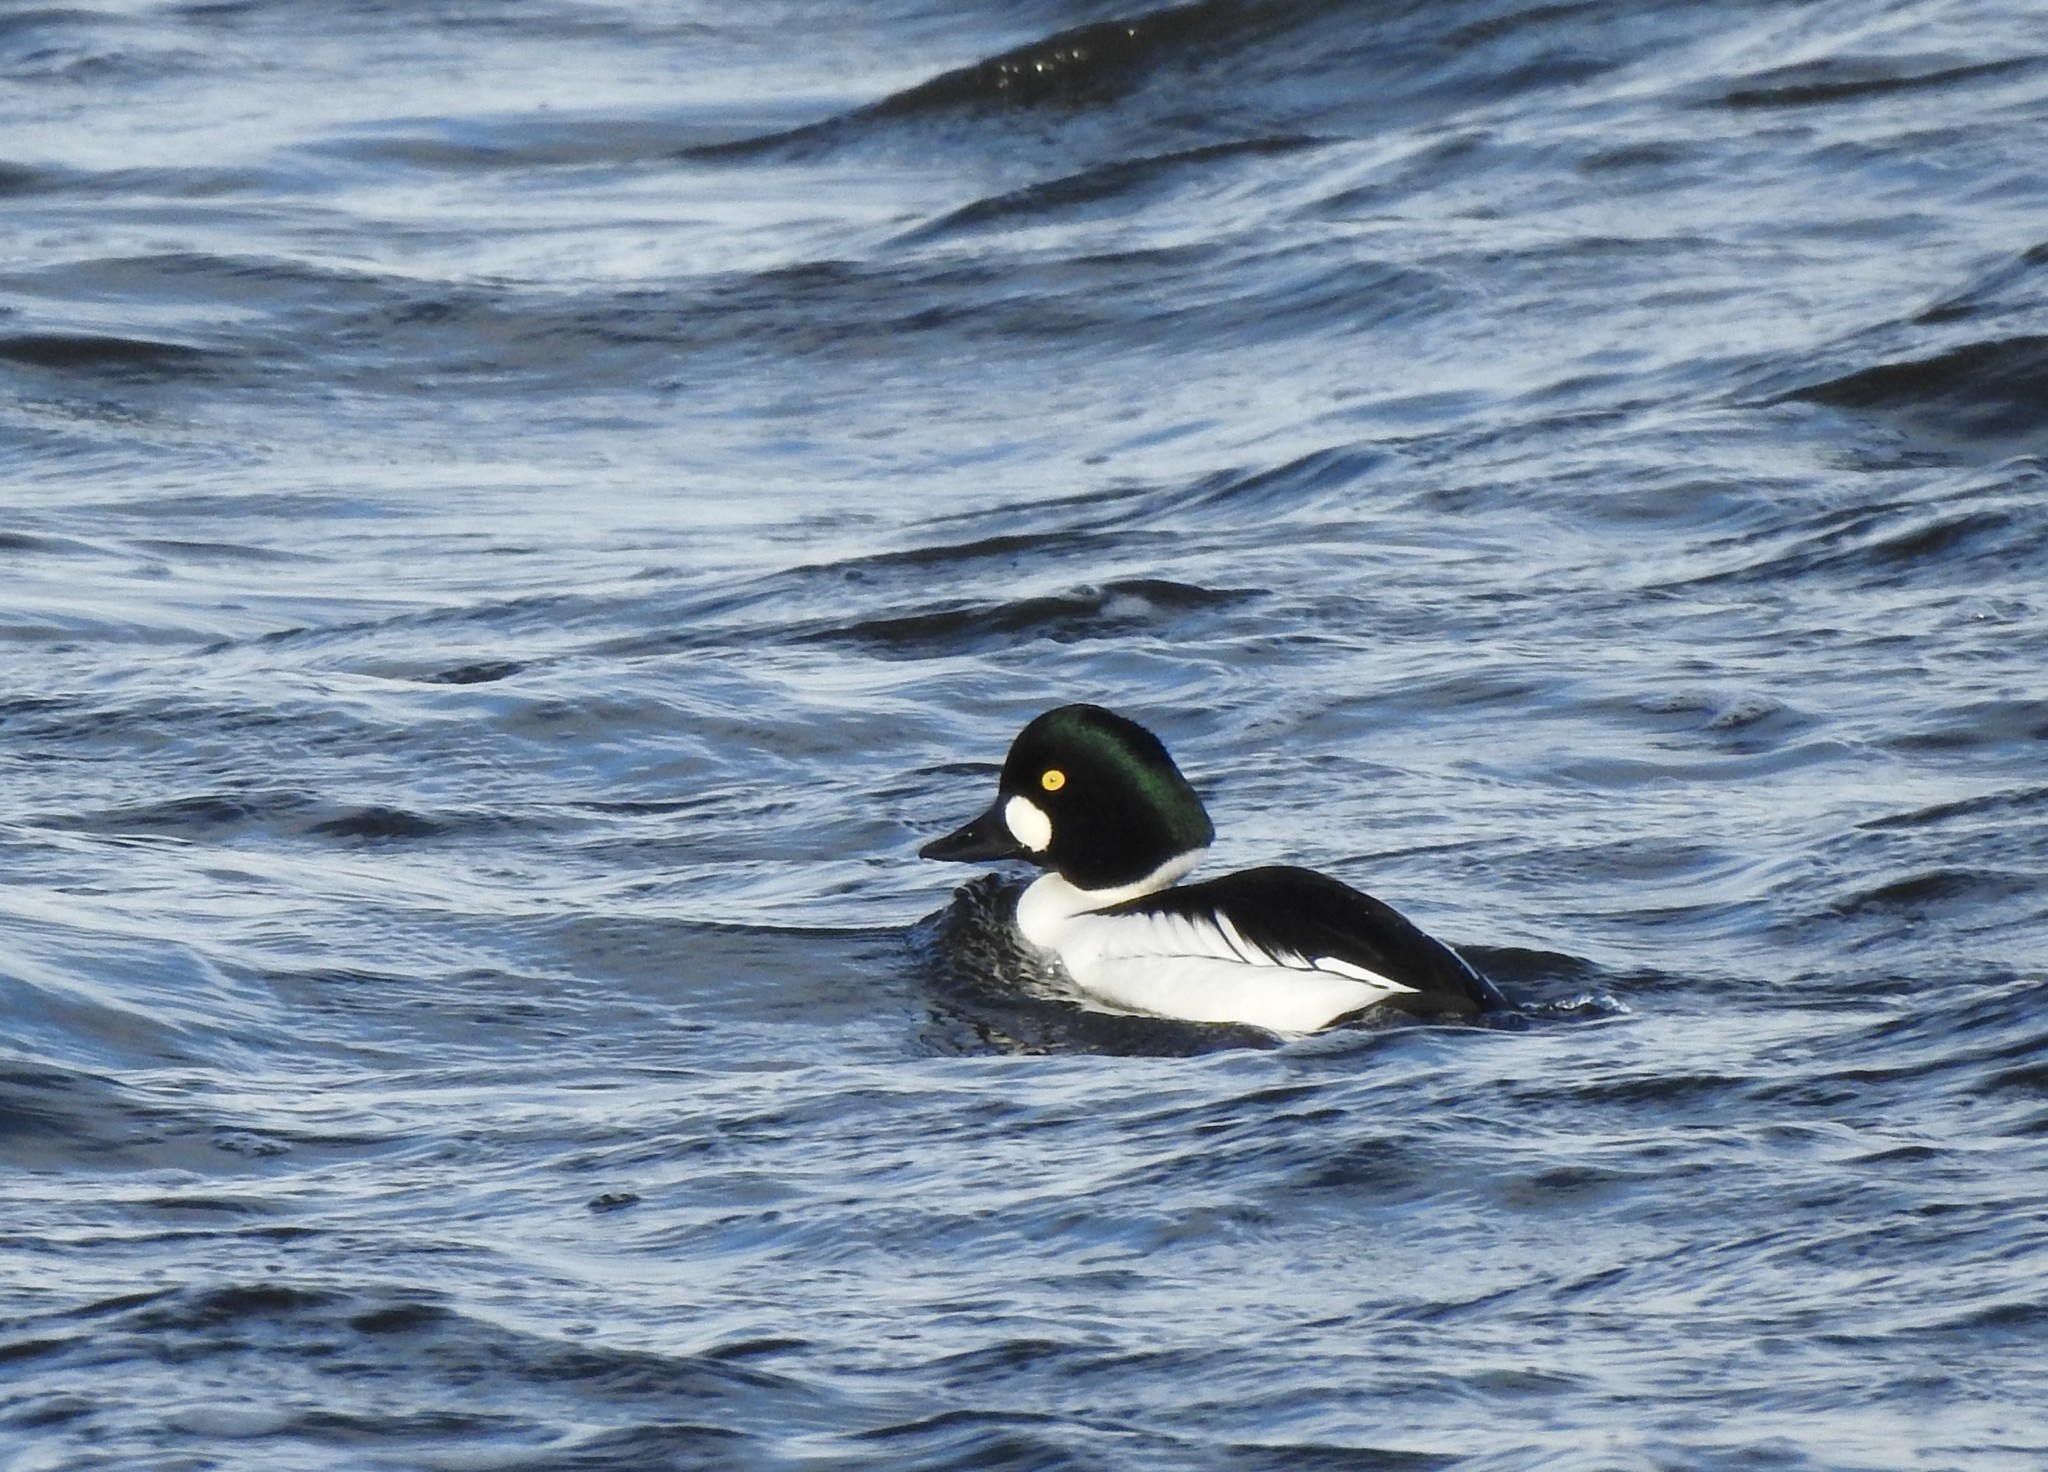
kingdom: Animalia
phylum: Chordata
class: Aves
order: Anseriformes
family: Anatidae
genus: Bucephala
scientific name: Bucephala clangula
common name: Common goldeneye
